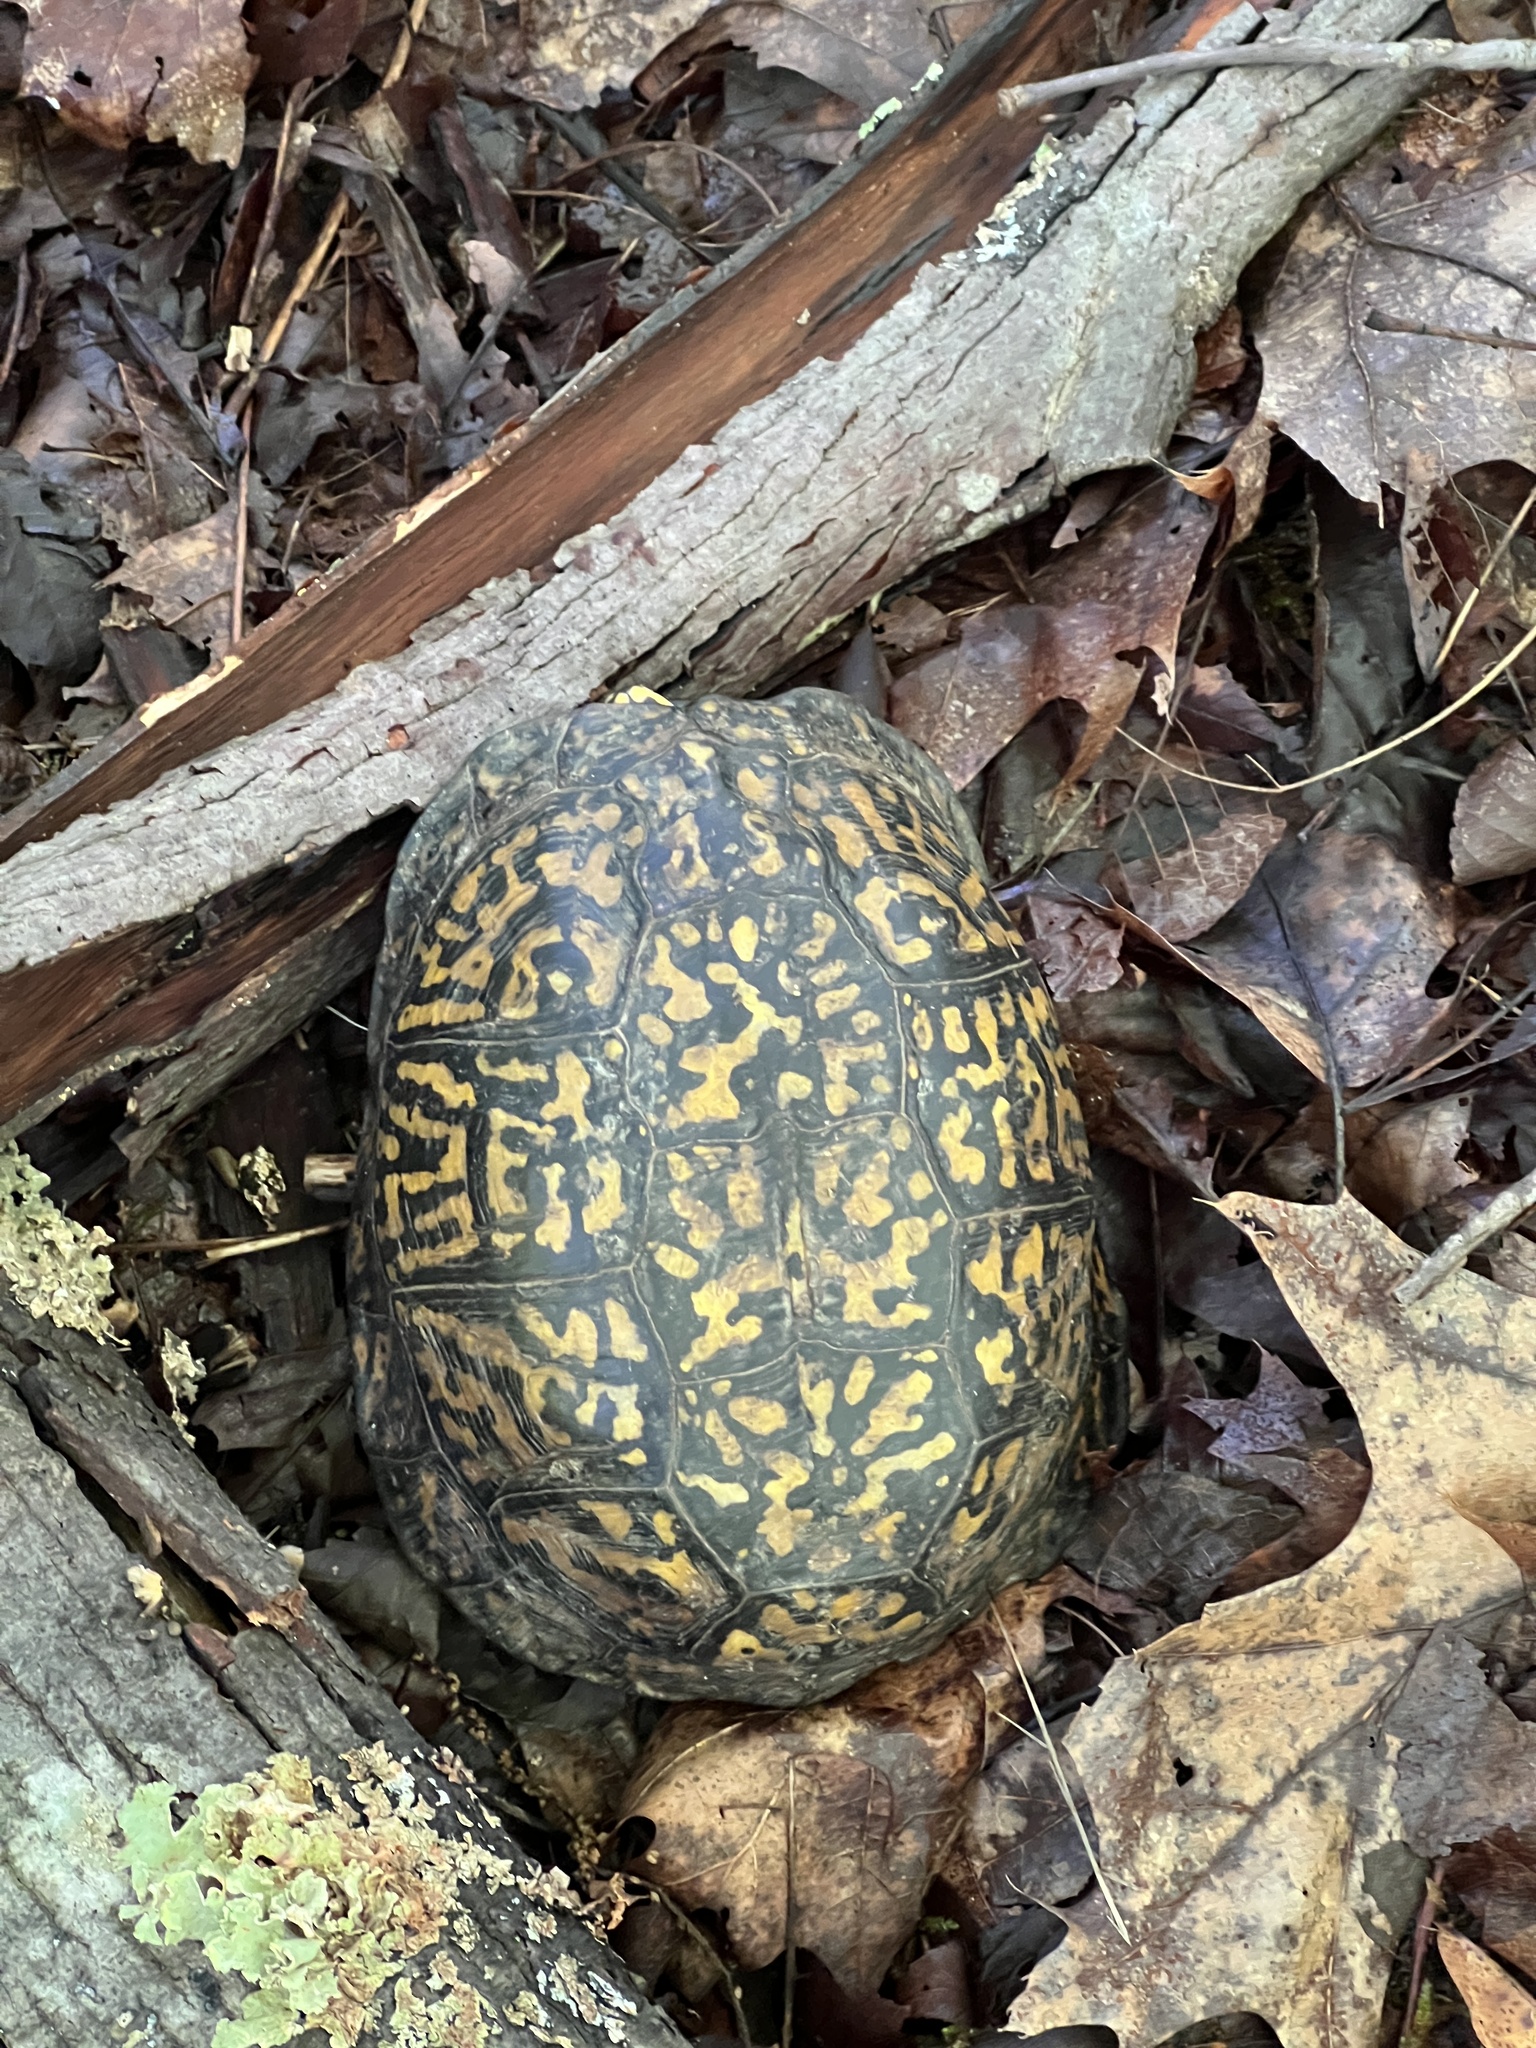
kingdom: Animalia
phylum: Chordata
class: Testudines
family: Emydidae
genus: Terrapene
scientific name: Terrapene carolina
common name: Common box turtle
